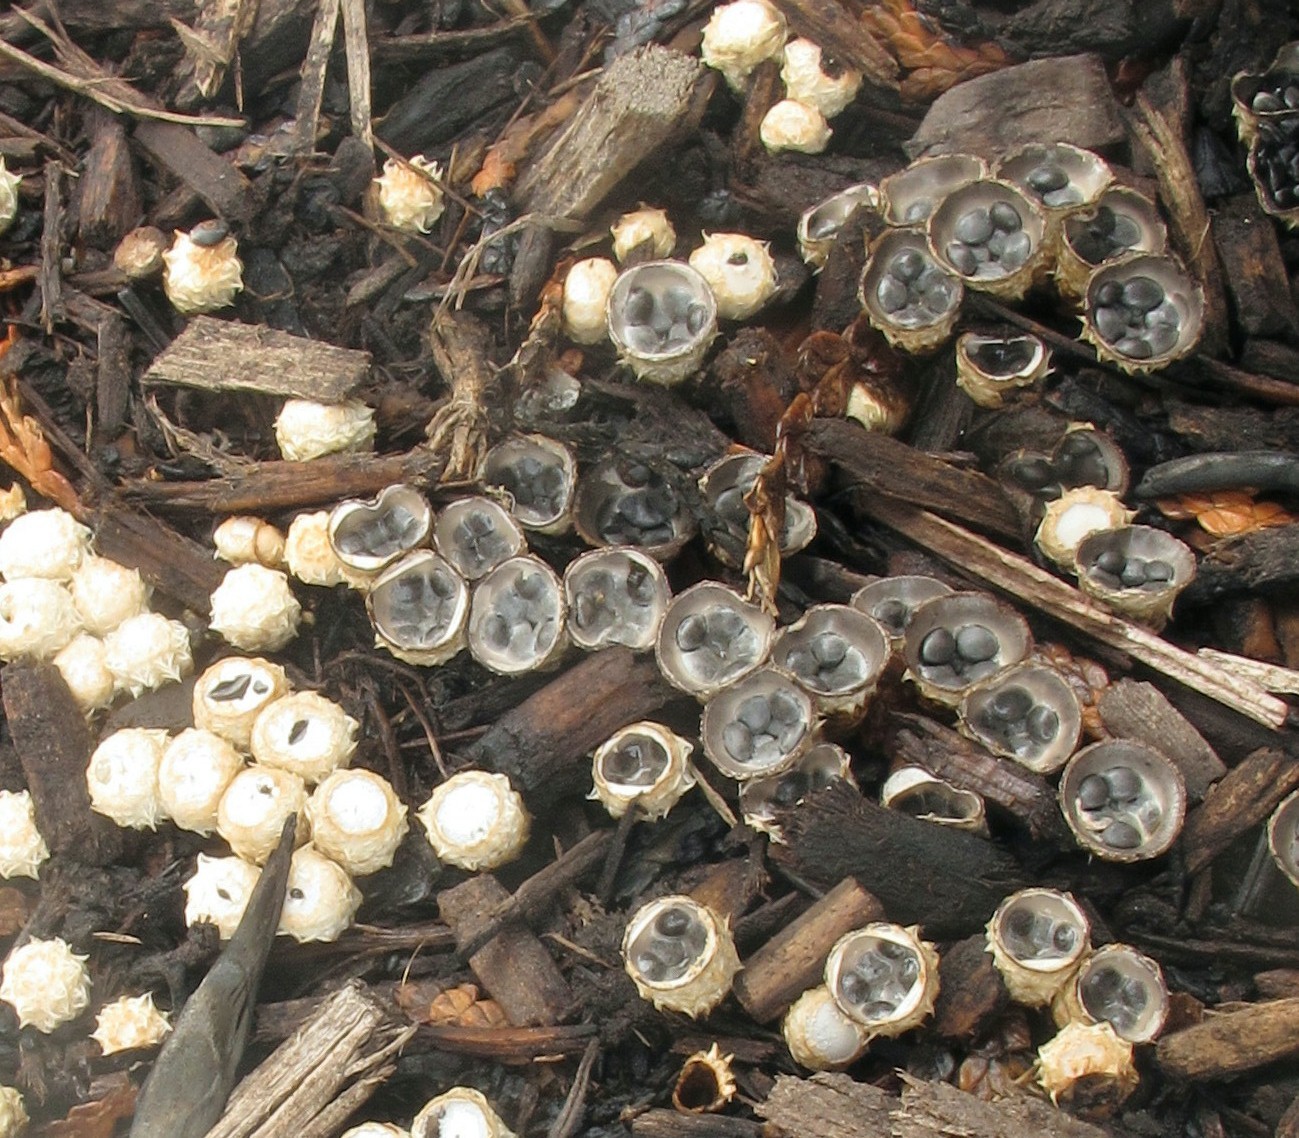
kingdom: Fungi
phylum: Basidiomycota
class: Agaricomycetes
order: Agaricales
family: Agaricaceae
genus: Cyathus
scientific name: Cyathus stercoreus
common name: Dung bird's nest
